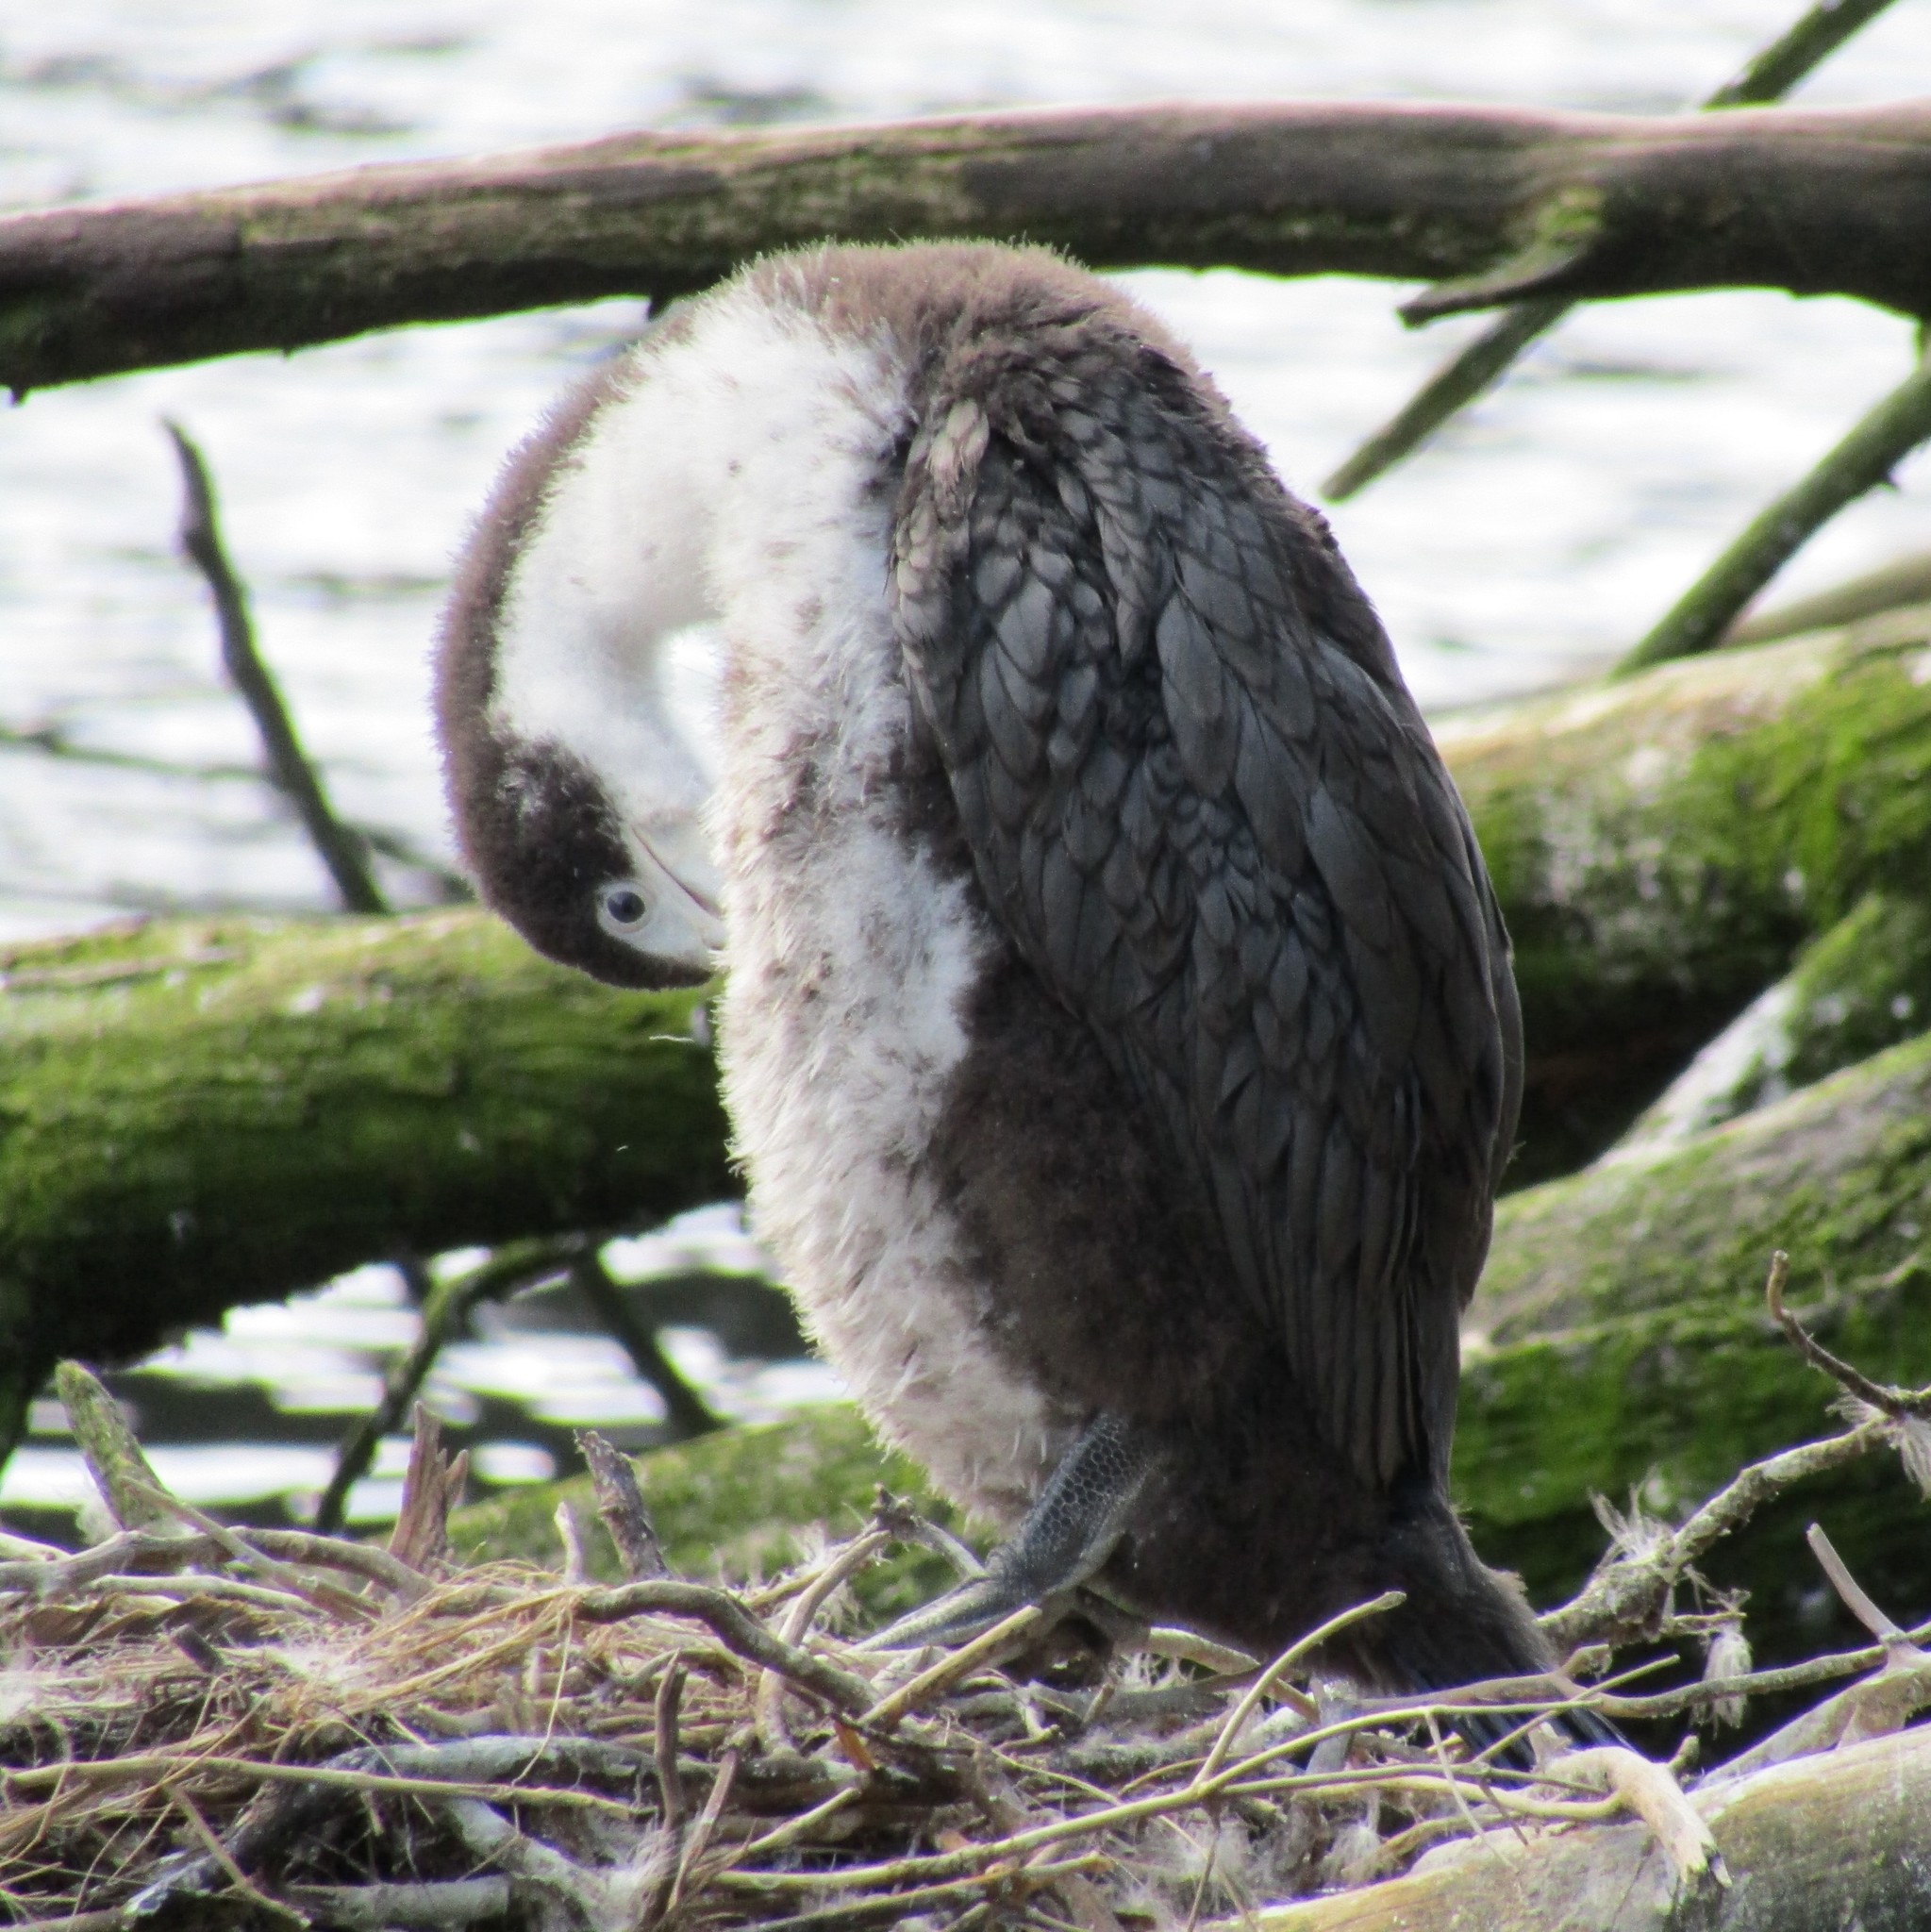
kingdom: Animalia
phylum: Chordata
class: Aves
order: Suliformes
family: Phalacrocoracidae
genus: Phalacrocorax
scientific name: Phalacrocorax varius
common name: Pied cormorant
